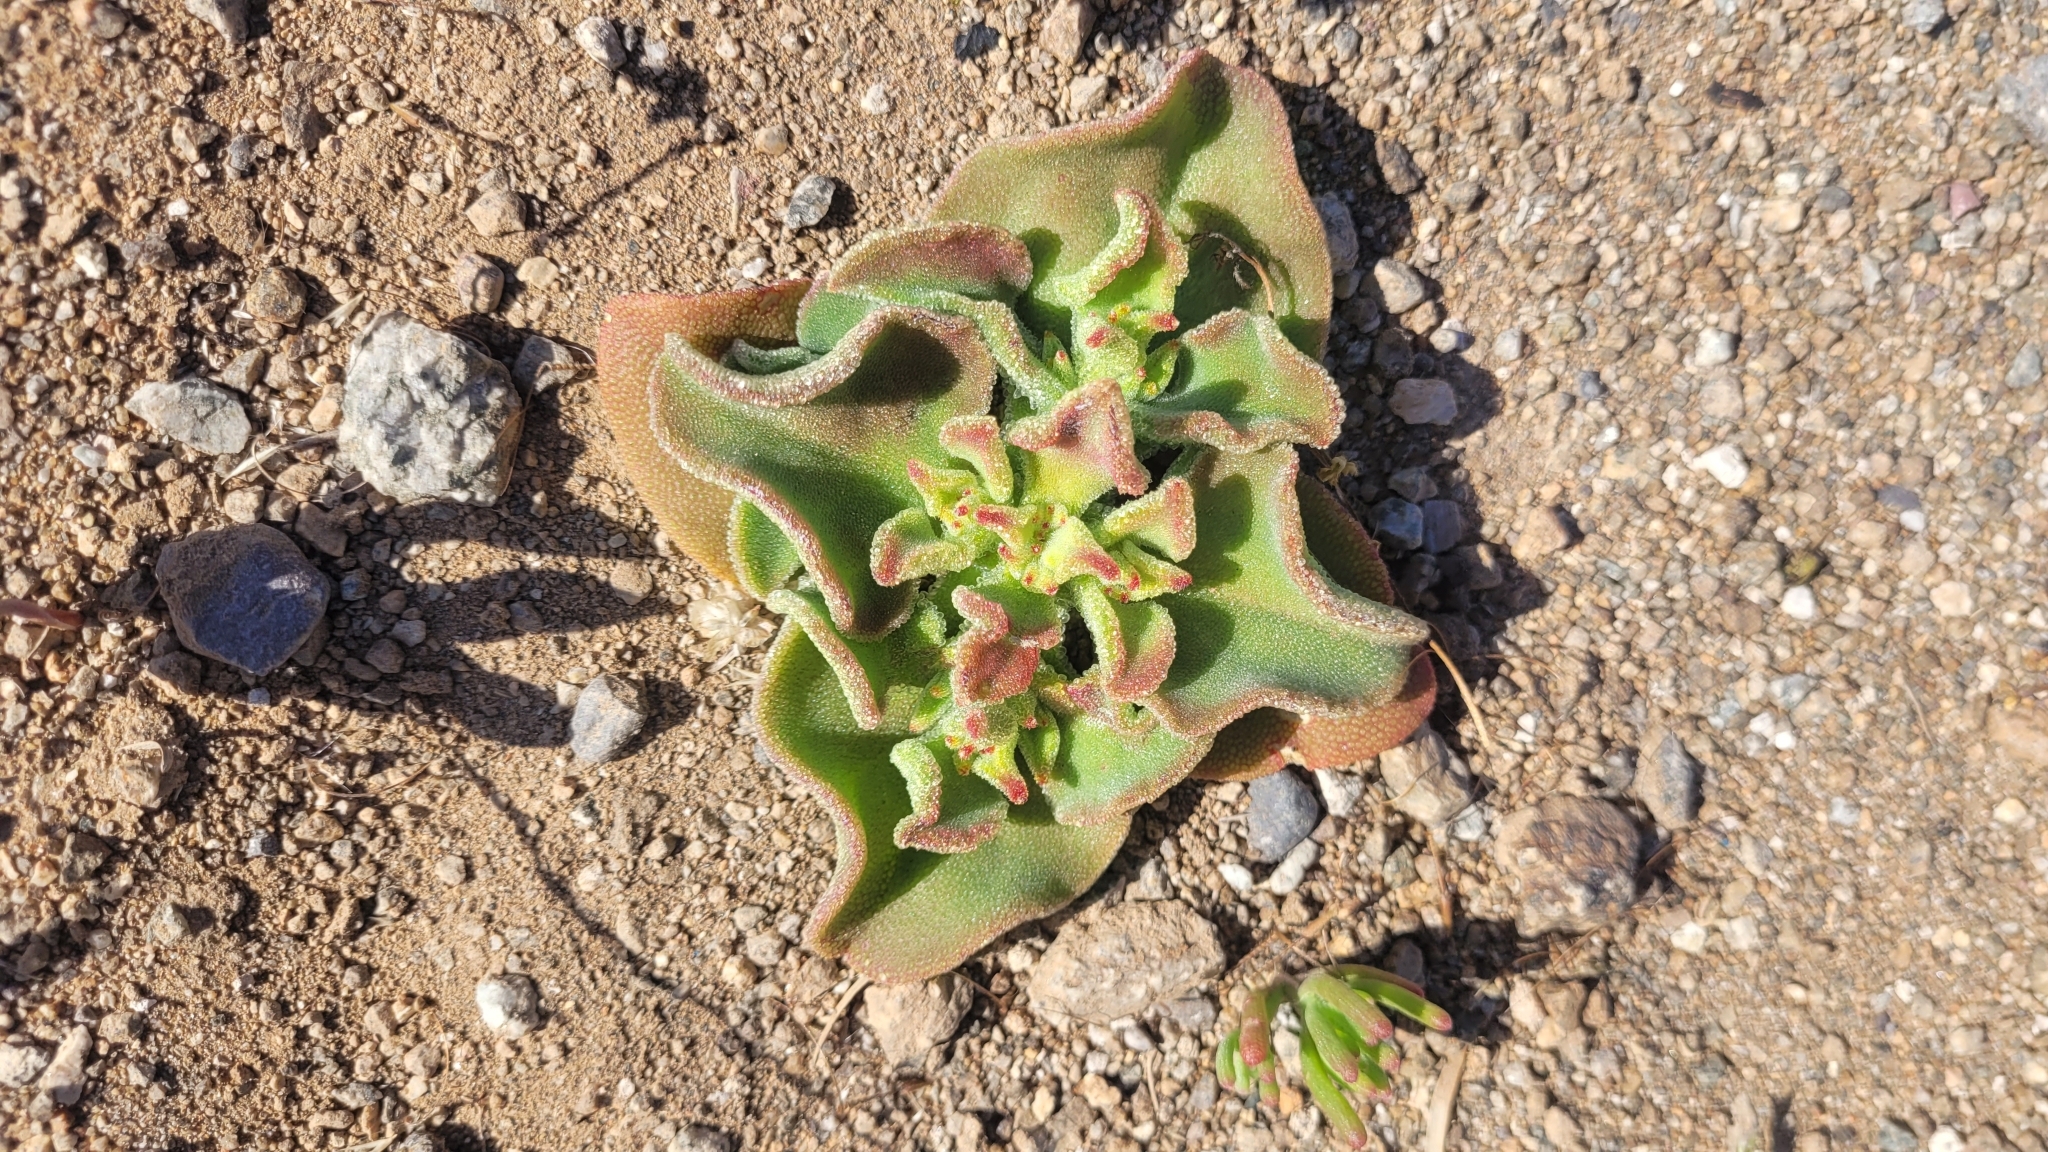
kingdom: Plantae
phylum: Tracheophyta
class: Magnoliopsida
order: Caryophyllales
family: Aizoaceae
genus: Mesembryanthemum
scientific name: Mesembryanthemum crystallinum
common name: Common iceplant
